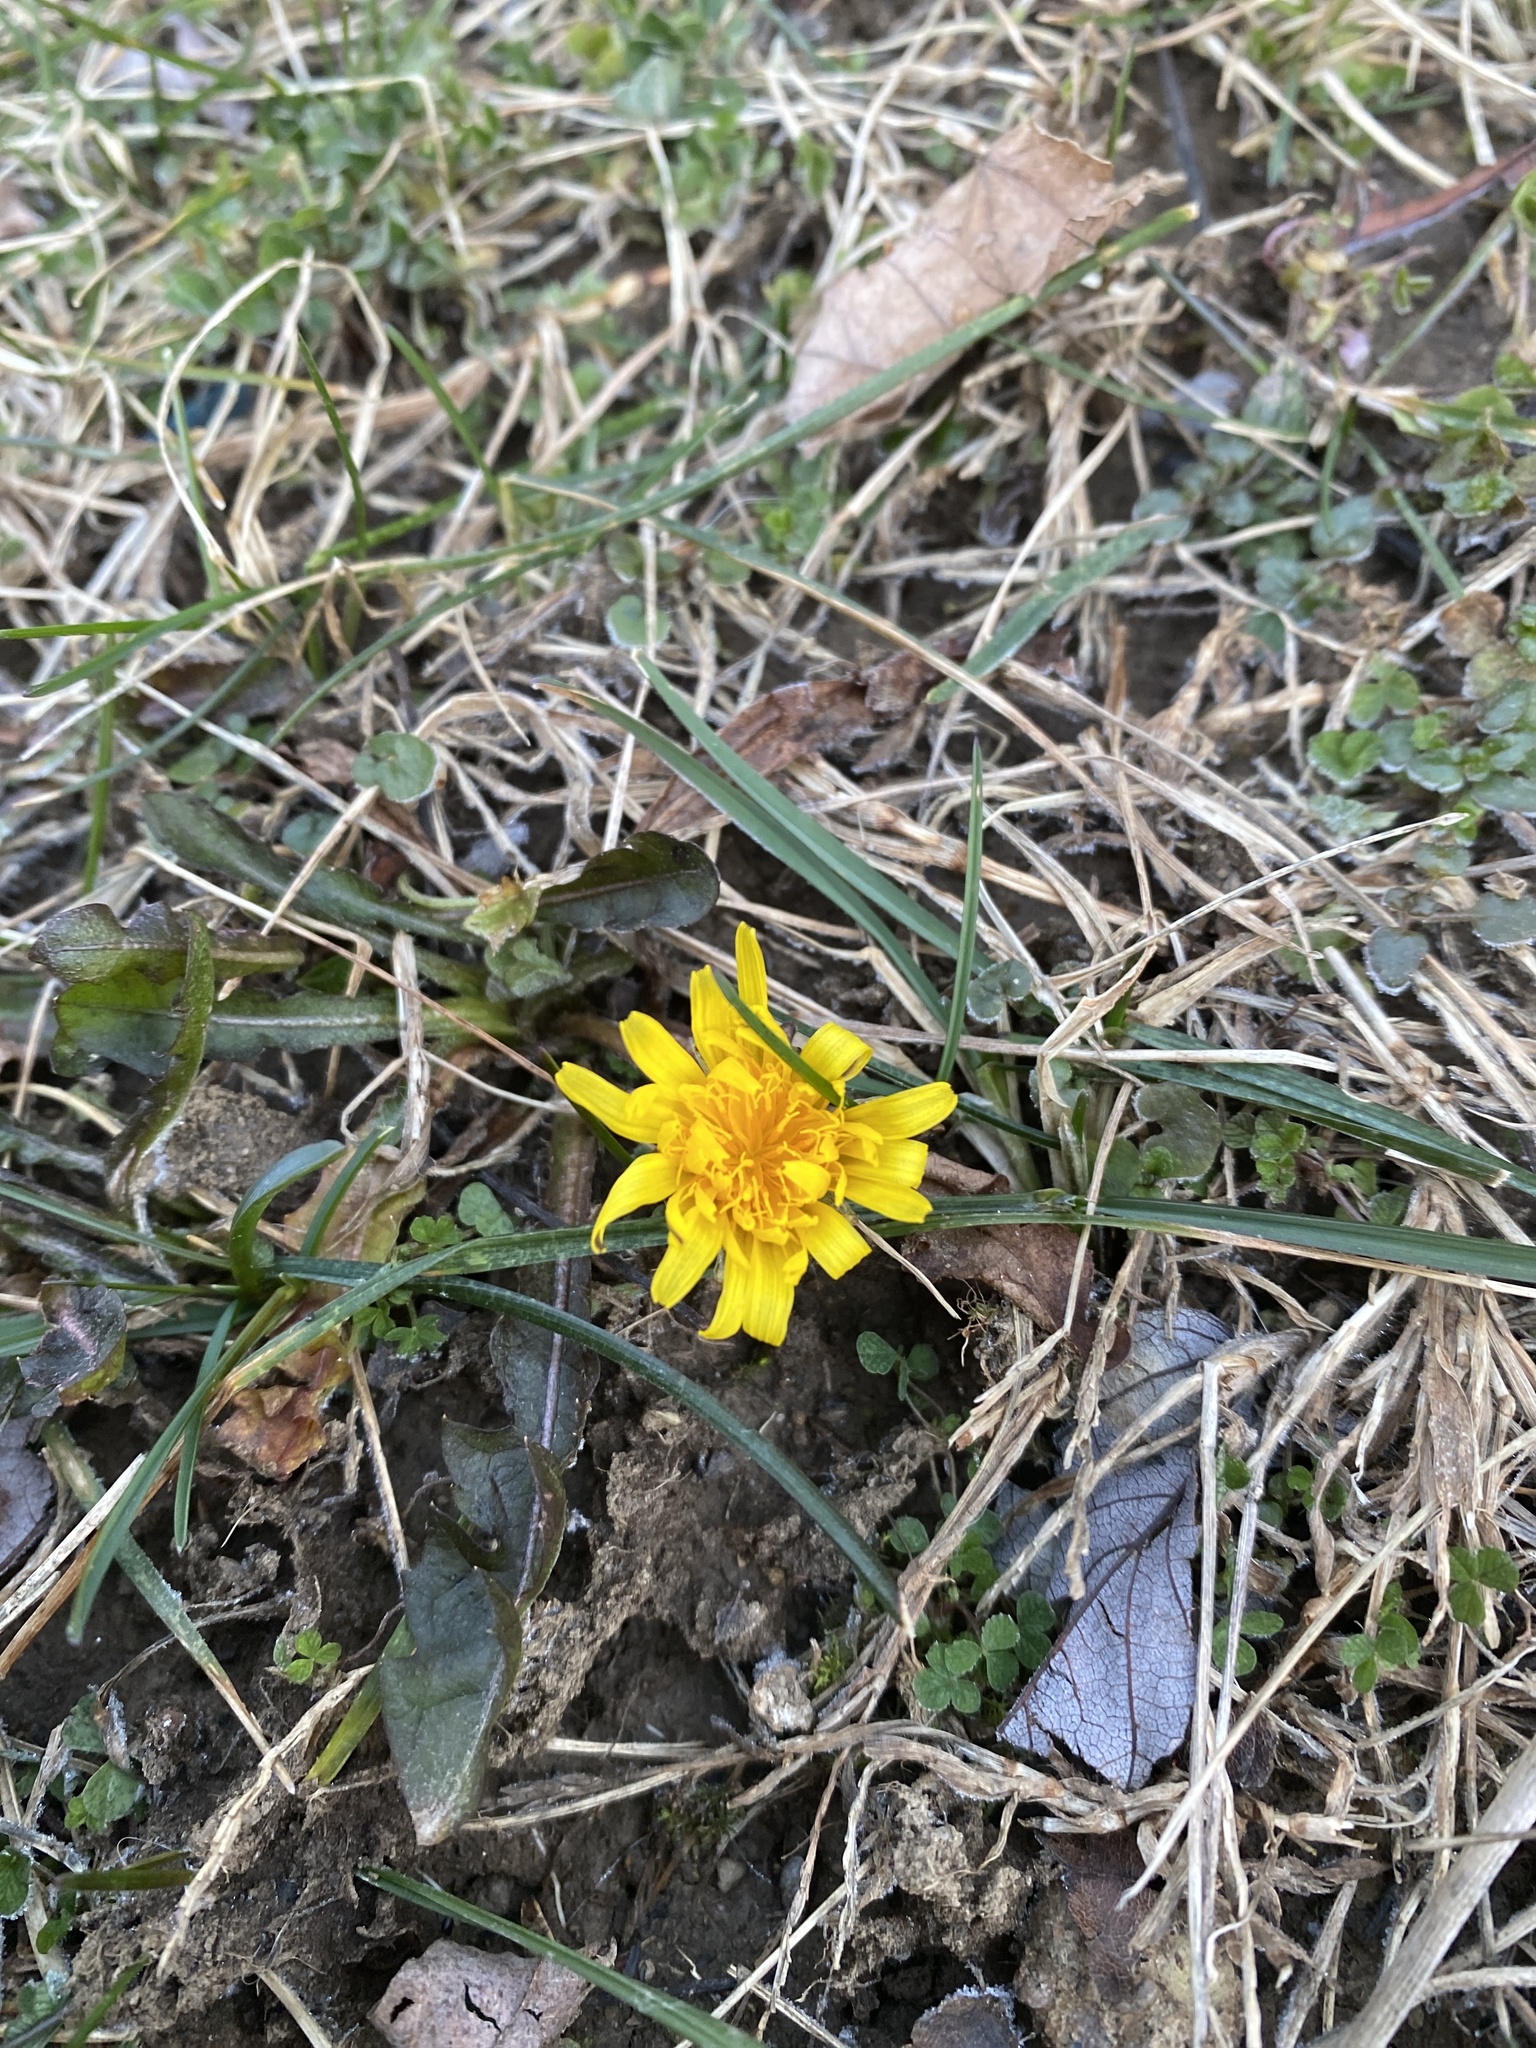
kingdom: Plantae
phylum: Tracheophyta
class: Magnoliopsida
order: Asterales
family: Asteraceae
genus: Taraxacum
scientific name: Taraxacum
